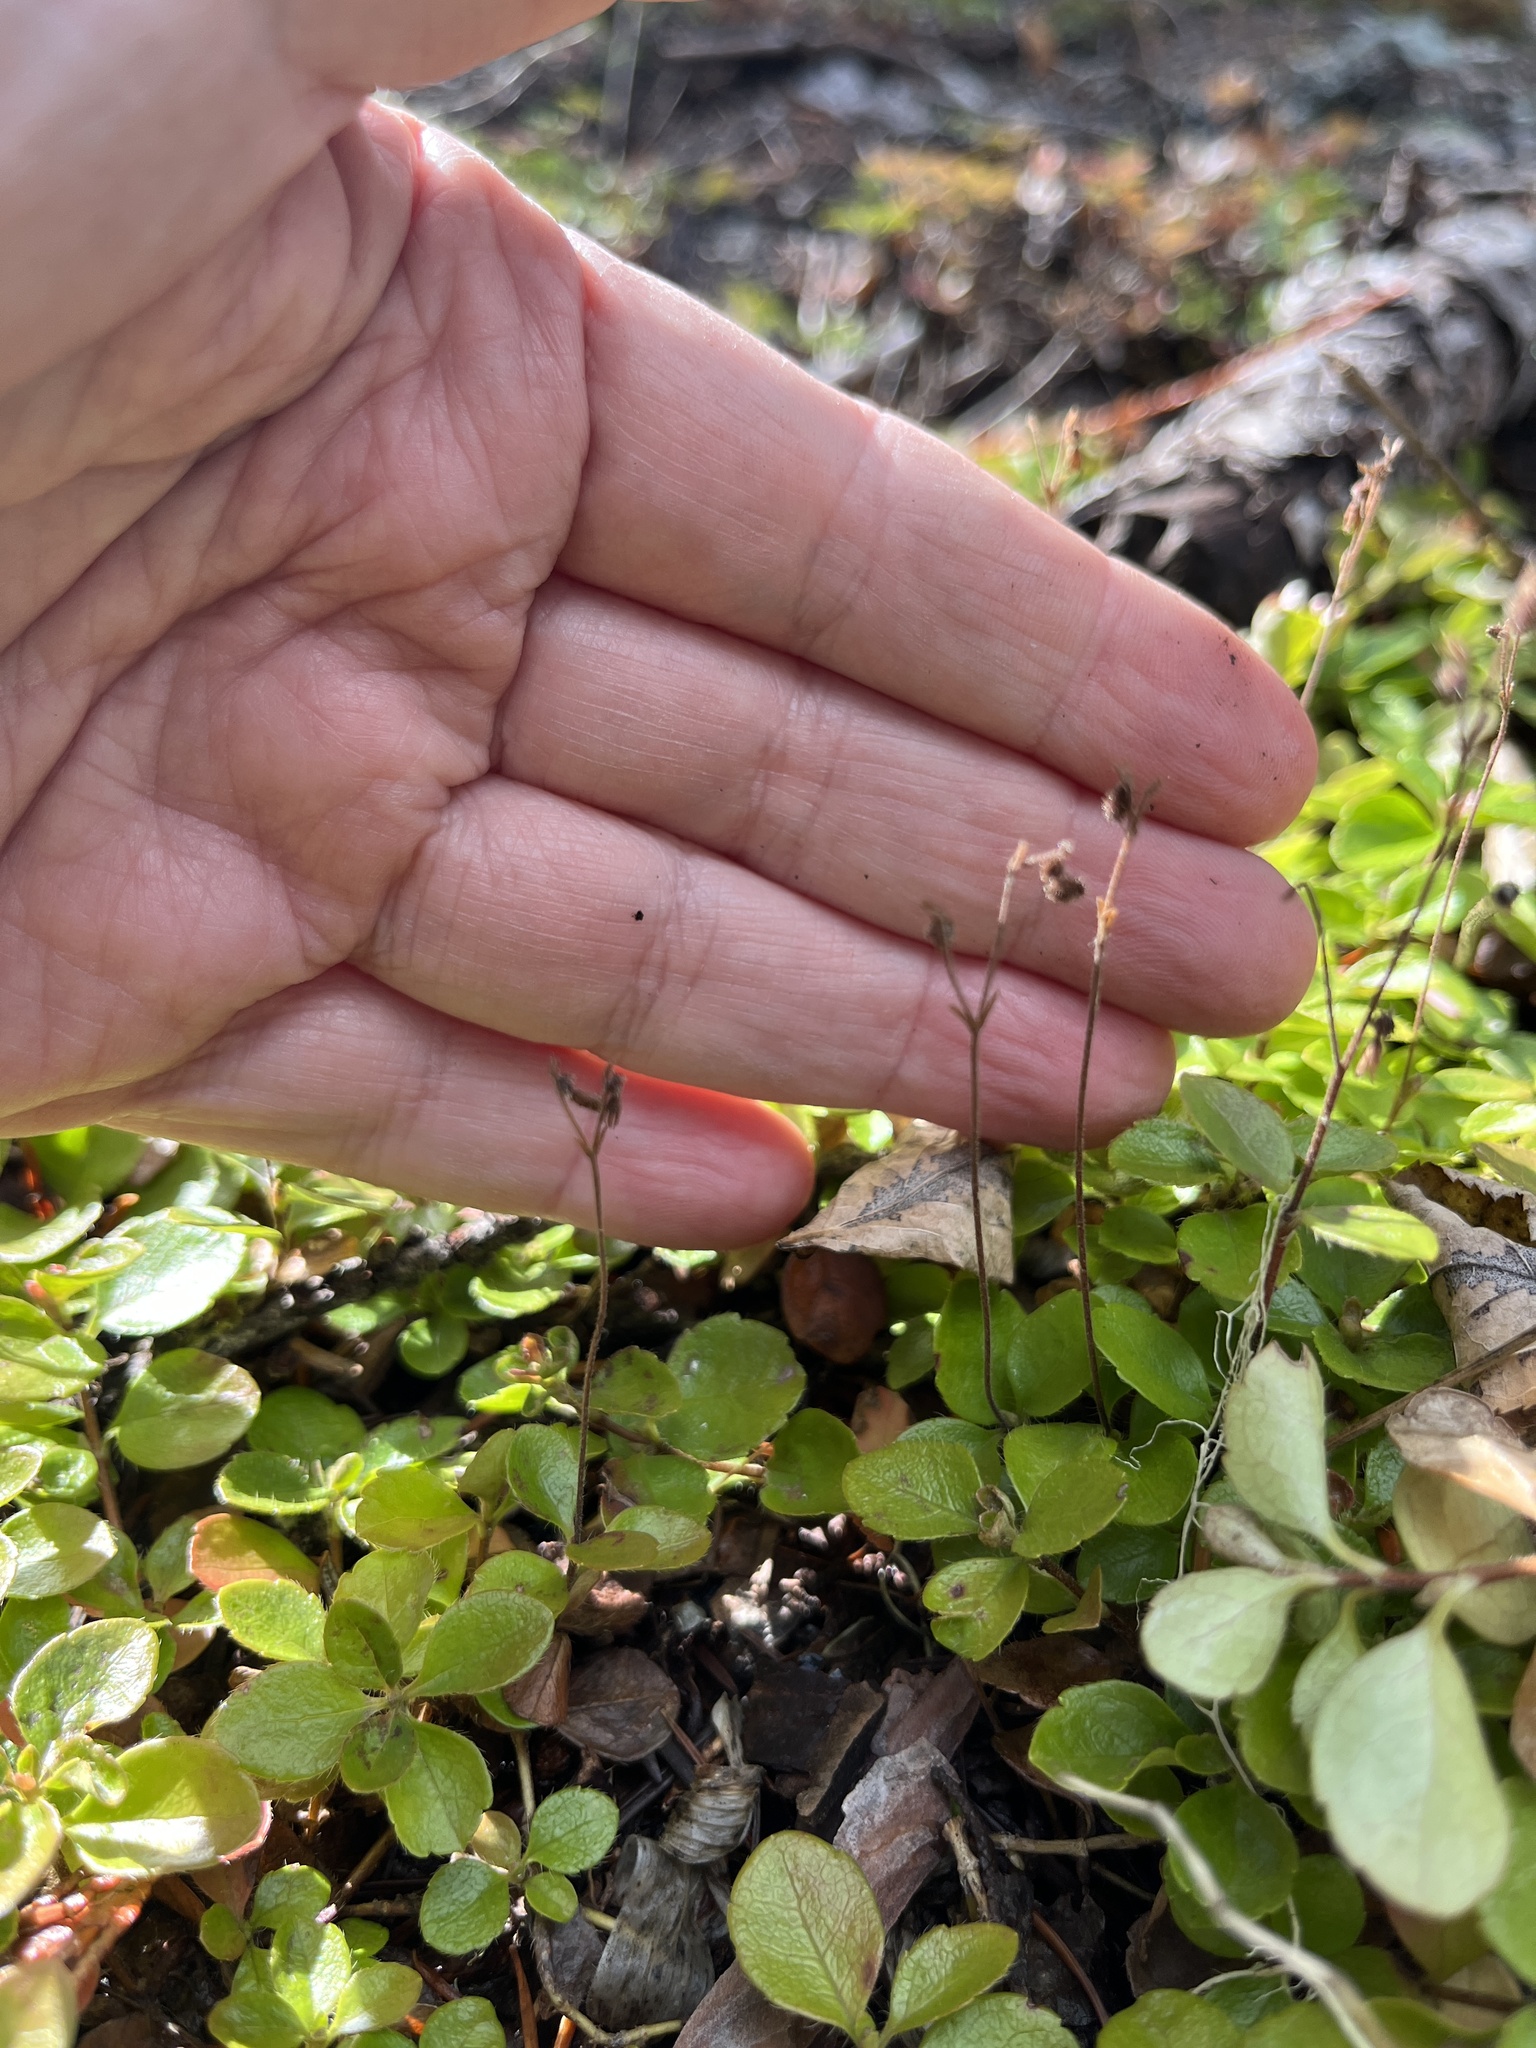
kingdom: Plantae
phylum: Tracheophyta
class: Magnoliopsida
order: Dipsacales
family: Caprifoliaceae
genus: Linnaea
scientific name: Linnaea borealis
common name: Twinflower
